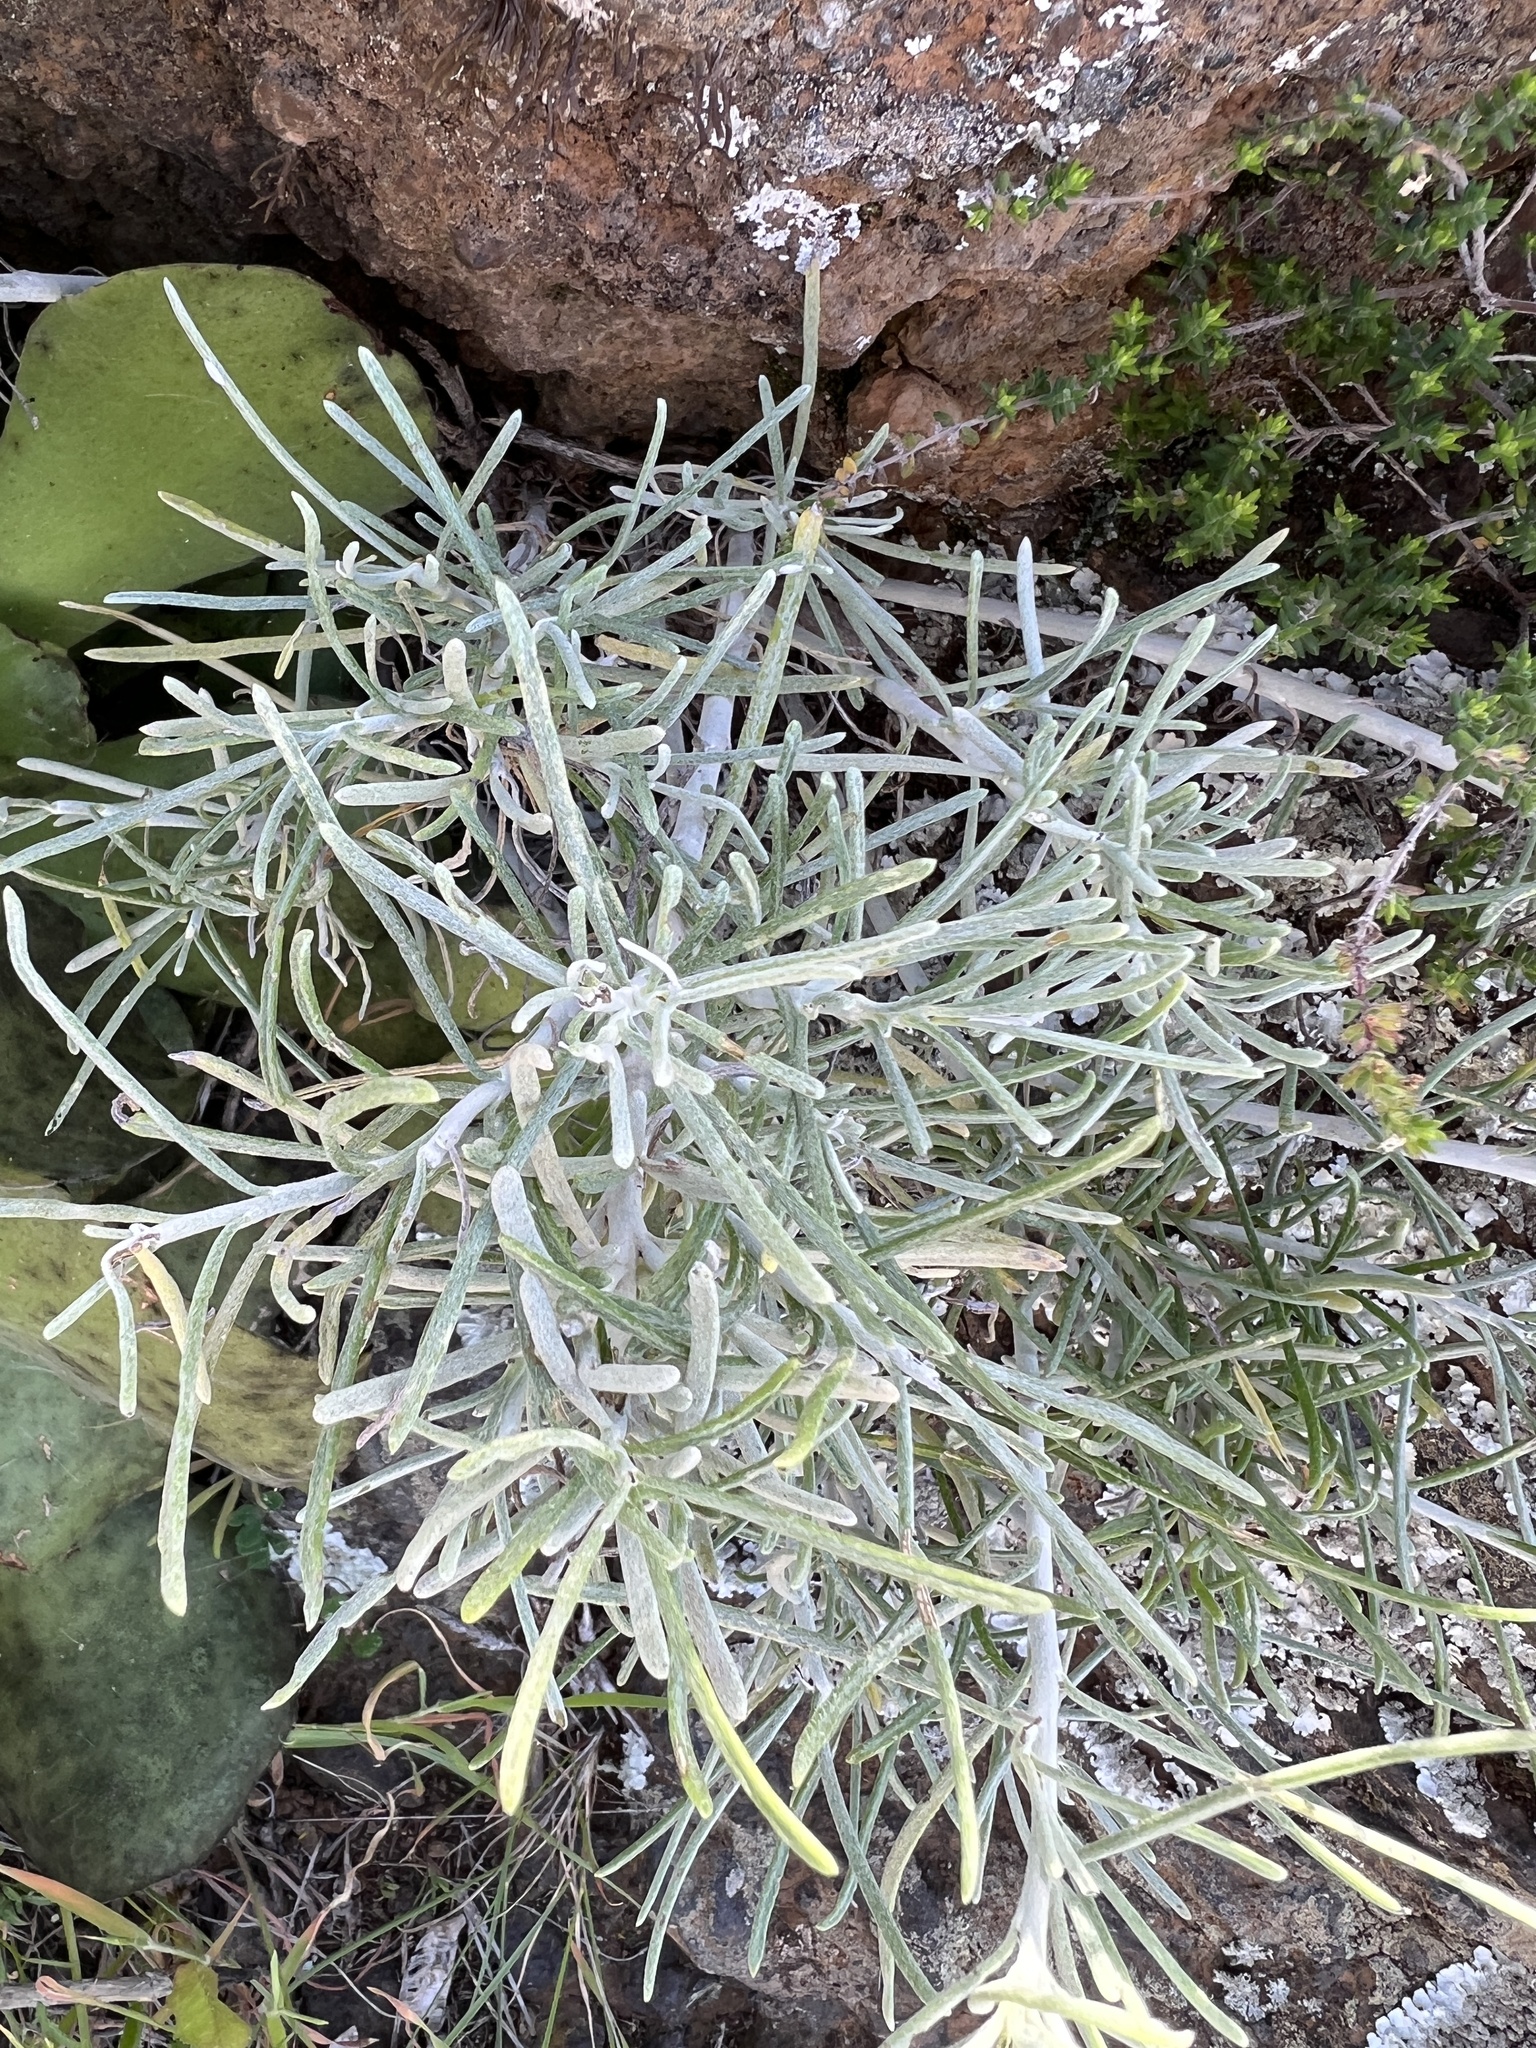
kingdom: Plantae
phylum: Tracheophyta
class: Magnoliopsida
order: Asterales
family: Asteraceae
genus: Schizogyne
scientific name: Schizogyne sericea
